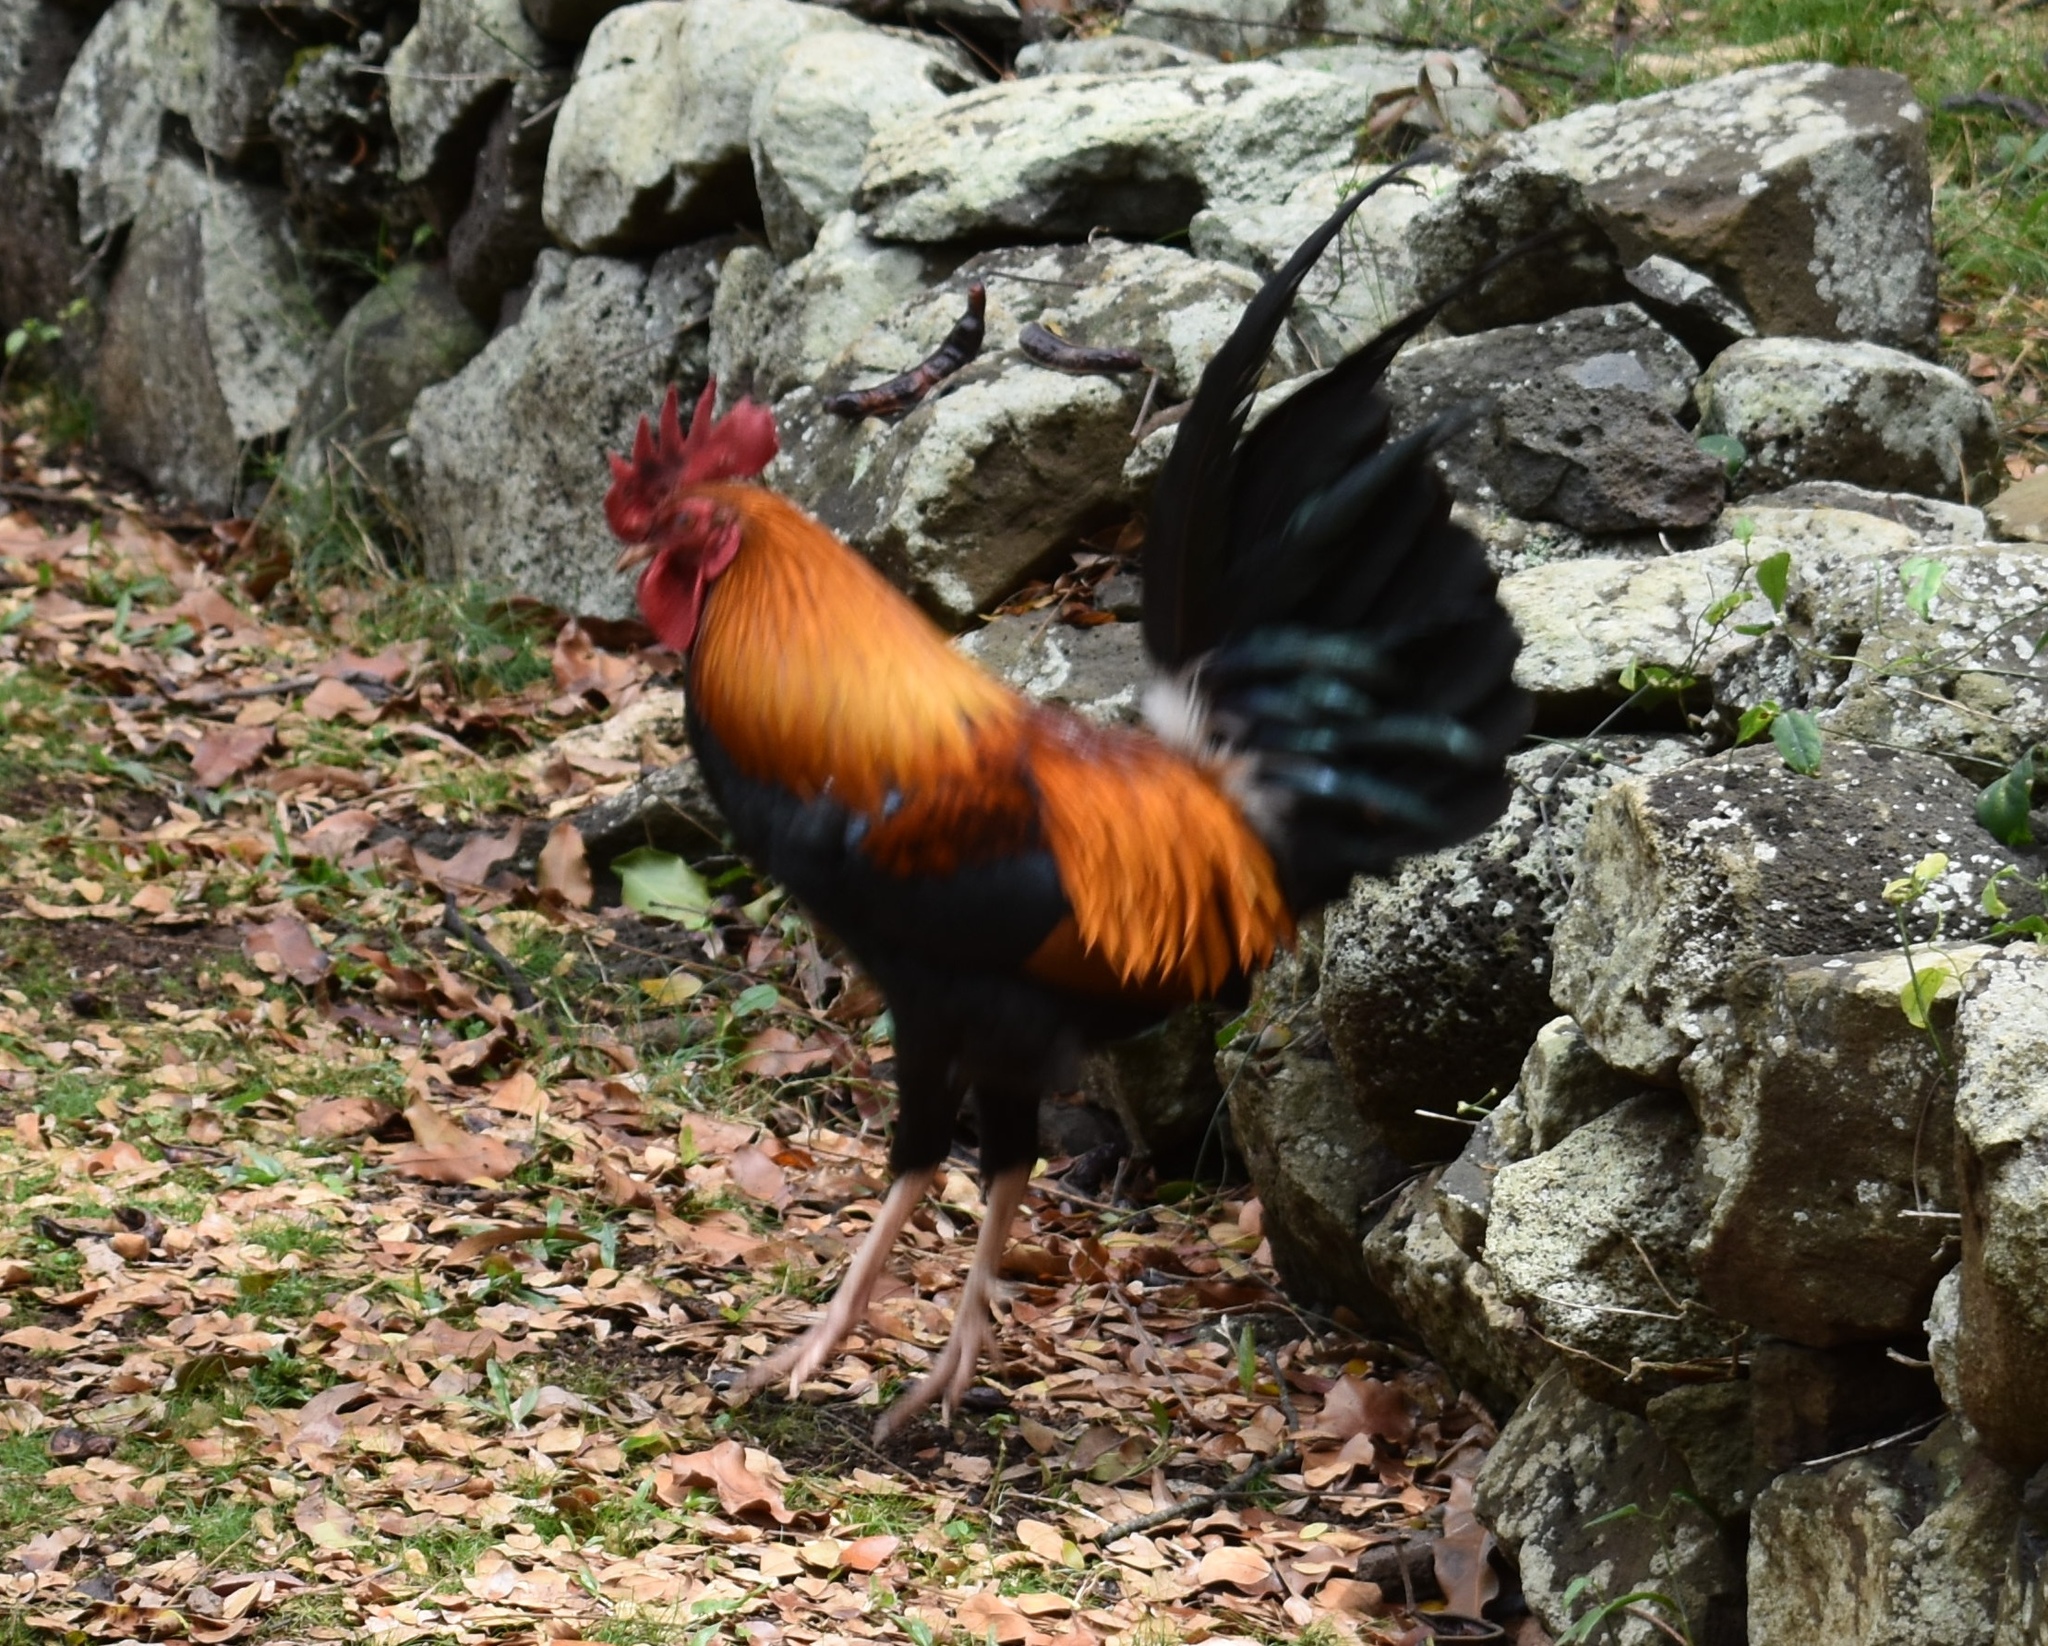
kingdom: Animalia
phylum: Chordata
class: Aves
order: Galliformes
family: Phasianidae
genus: Gallus
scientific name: Gallus gallus
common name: Red junglefowl
